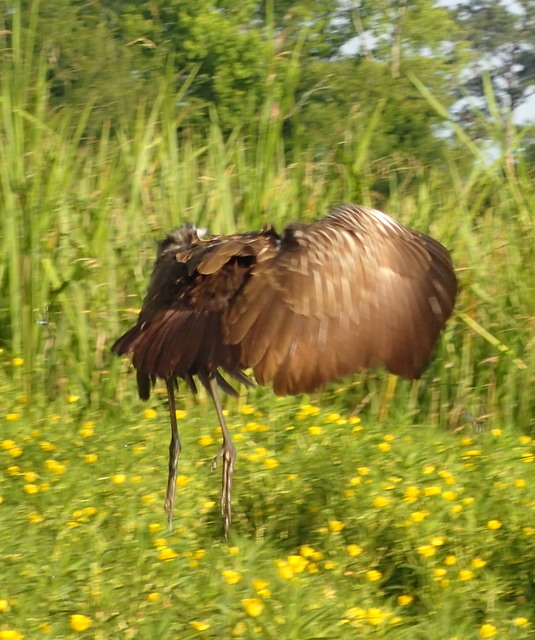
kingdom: Animalia
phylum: Chordata
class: Aves
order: Gruiformes
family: Aramidae
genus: Aramus
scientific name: Aramus guarauna
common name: Limpkin
